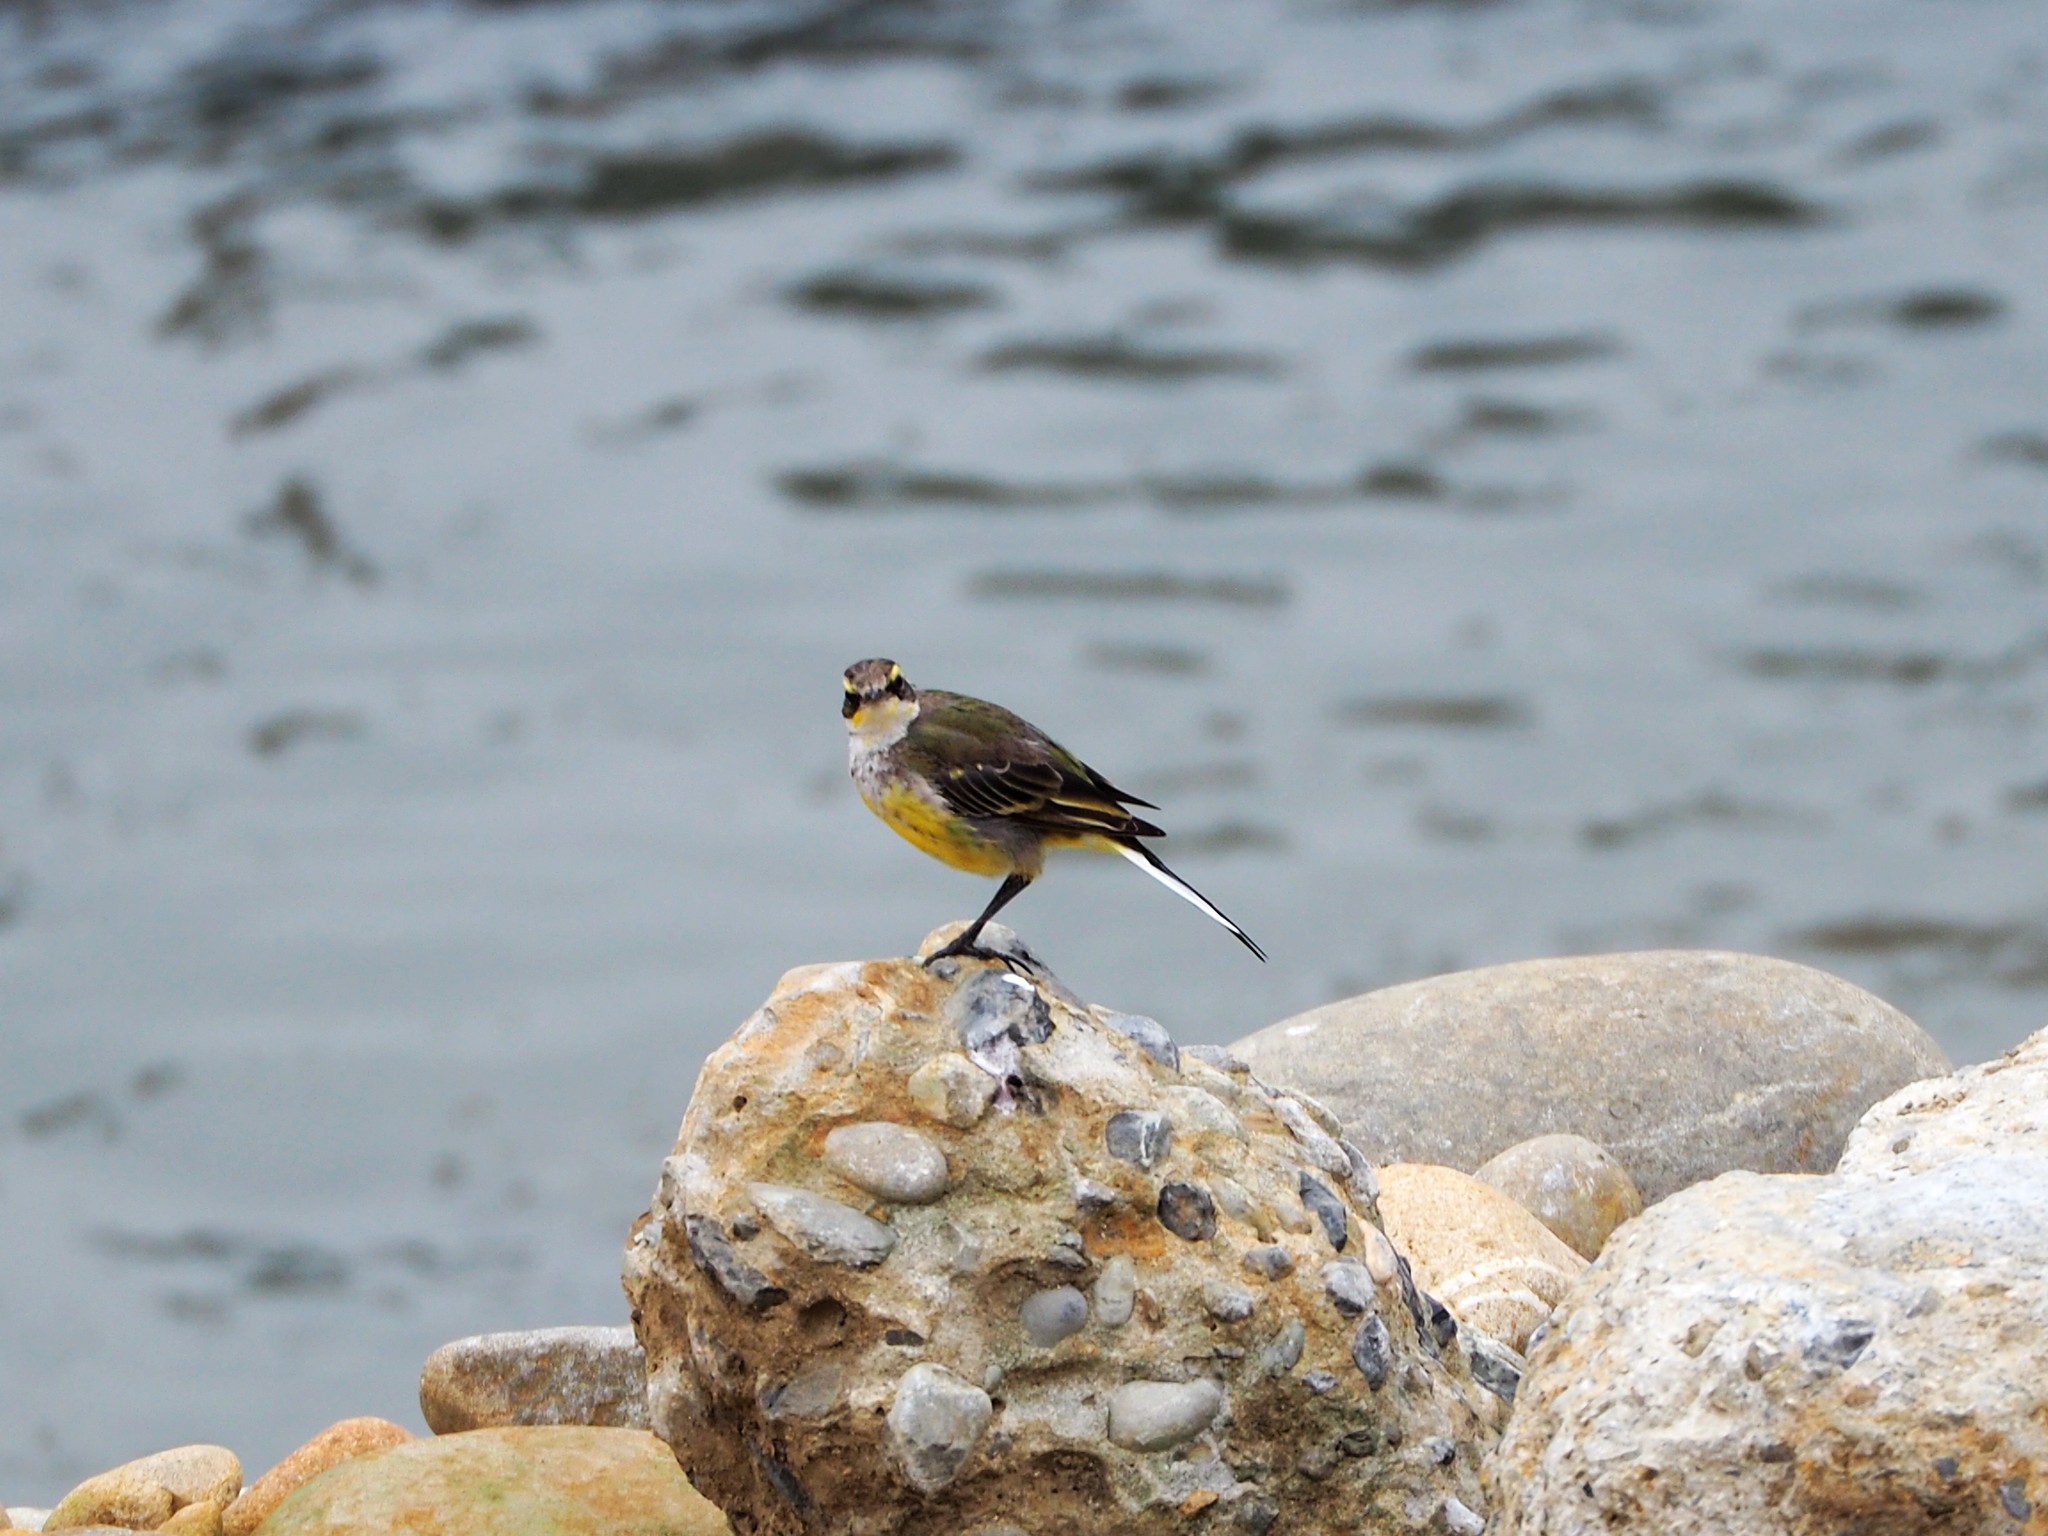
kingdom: Animalia
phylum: Chordata
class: Aves
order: Passeriformes
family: Motacillidae
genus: Motacilla
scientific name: Motacilla tschutschensis
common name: Eastern yellow wagtail
